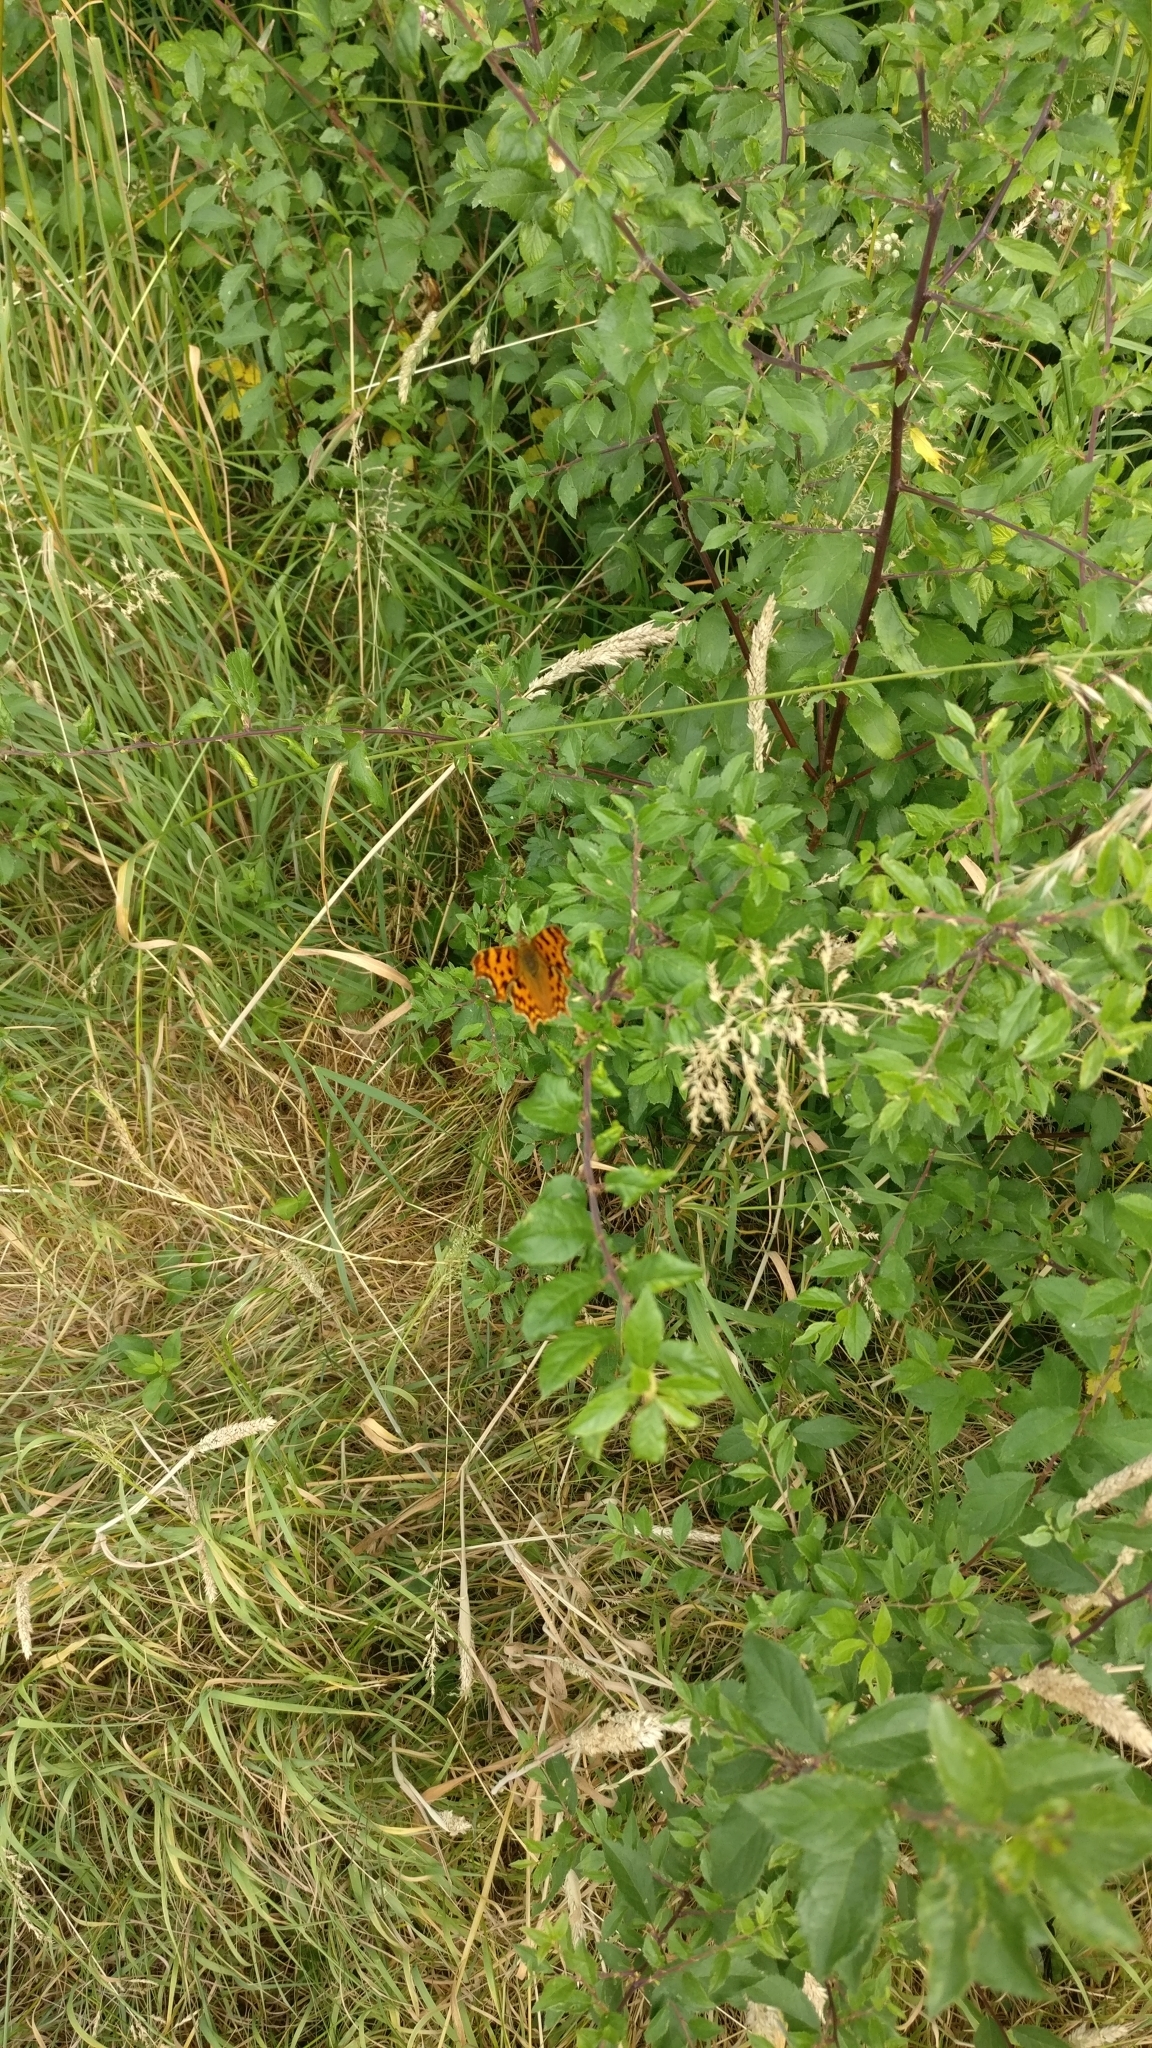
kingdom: Animalia
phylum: Arthropoda
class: Insecta
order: Lepidoptera
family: Nymphalidae
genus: Polygonia
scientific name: Polygonia c-album
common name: Comma
